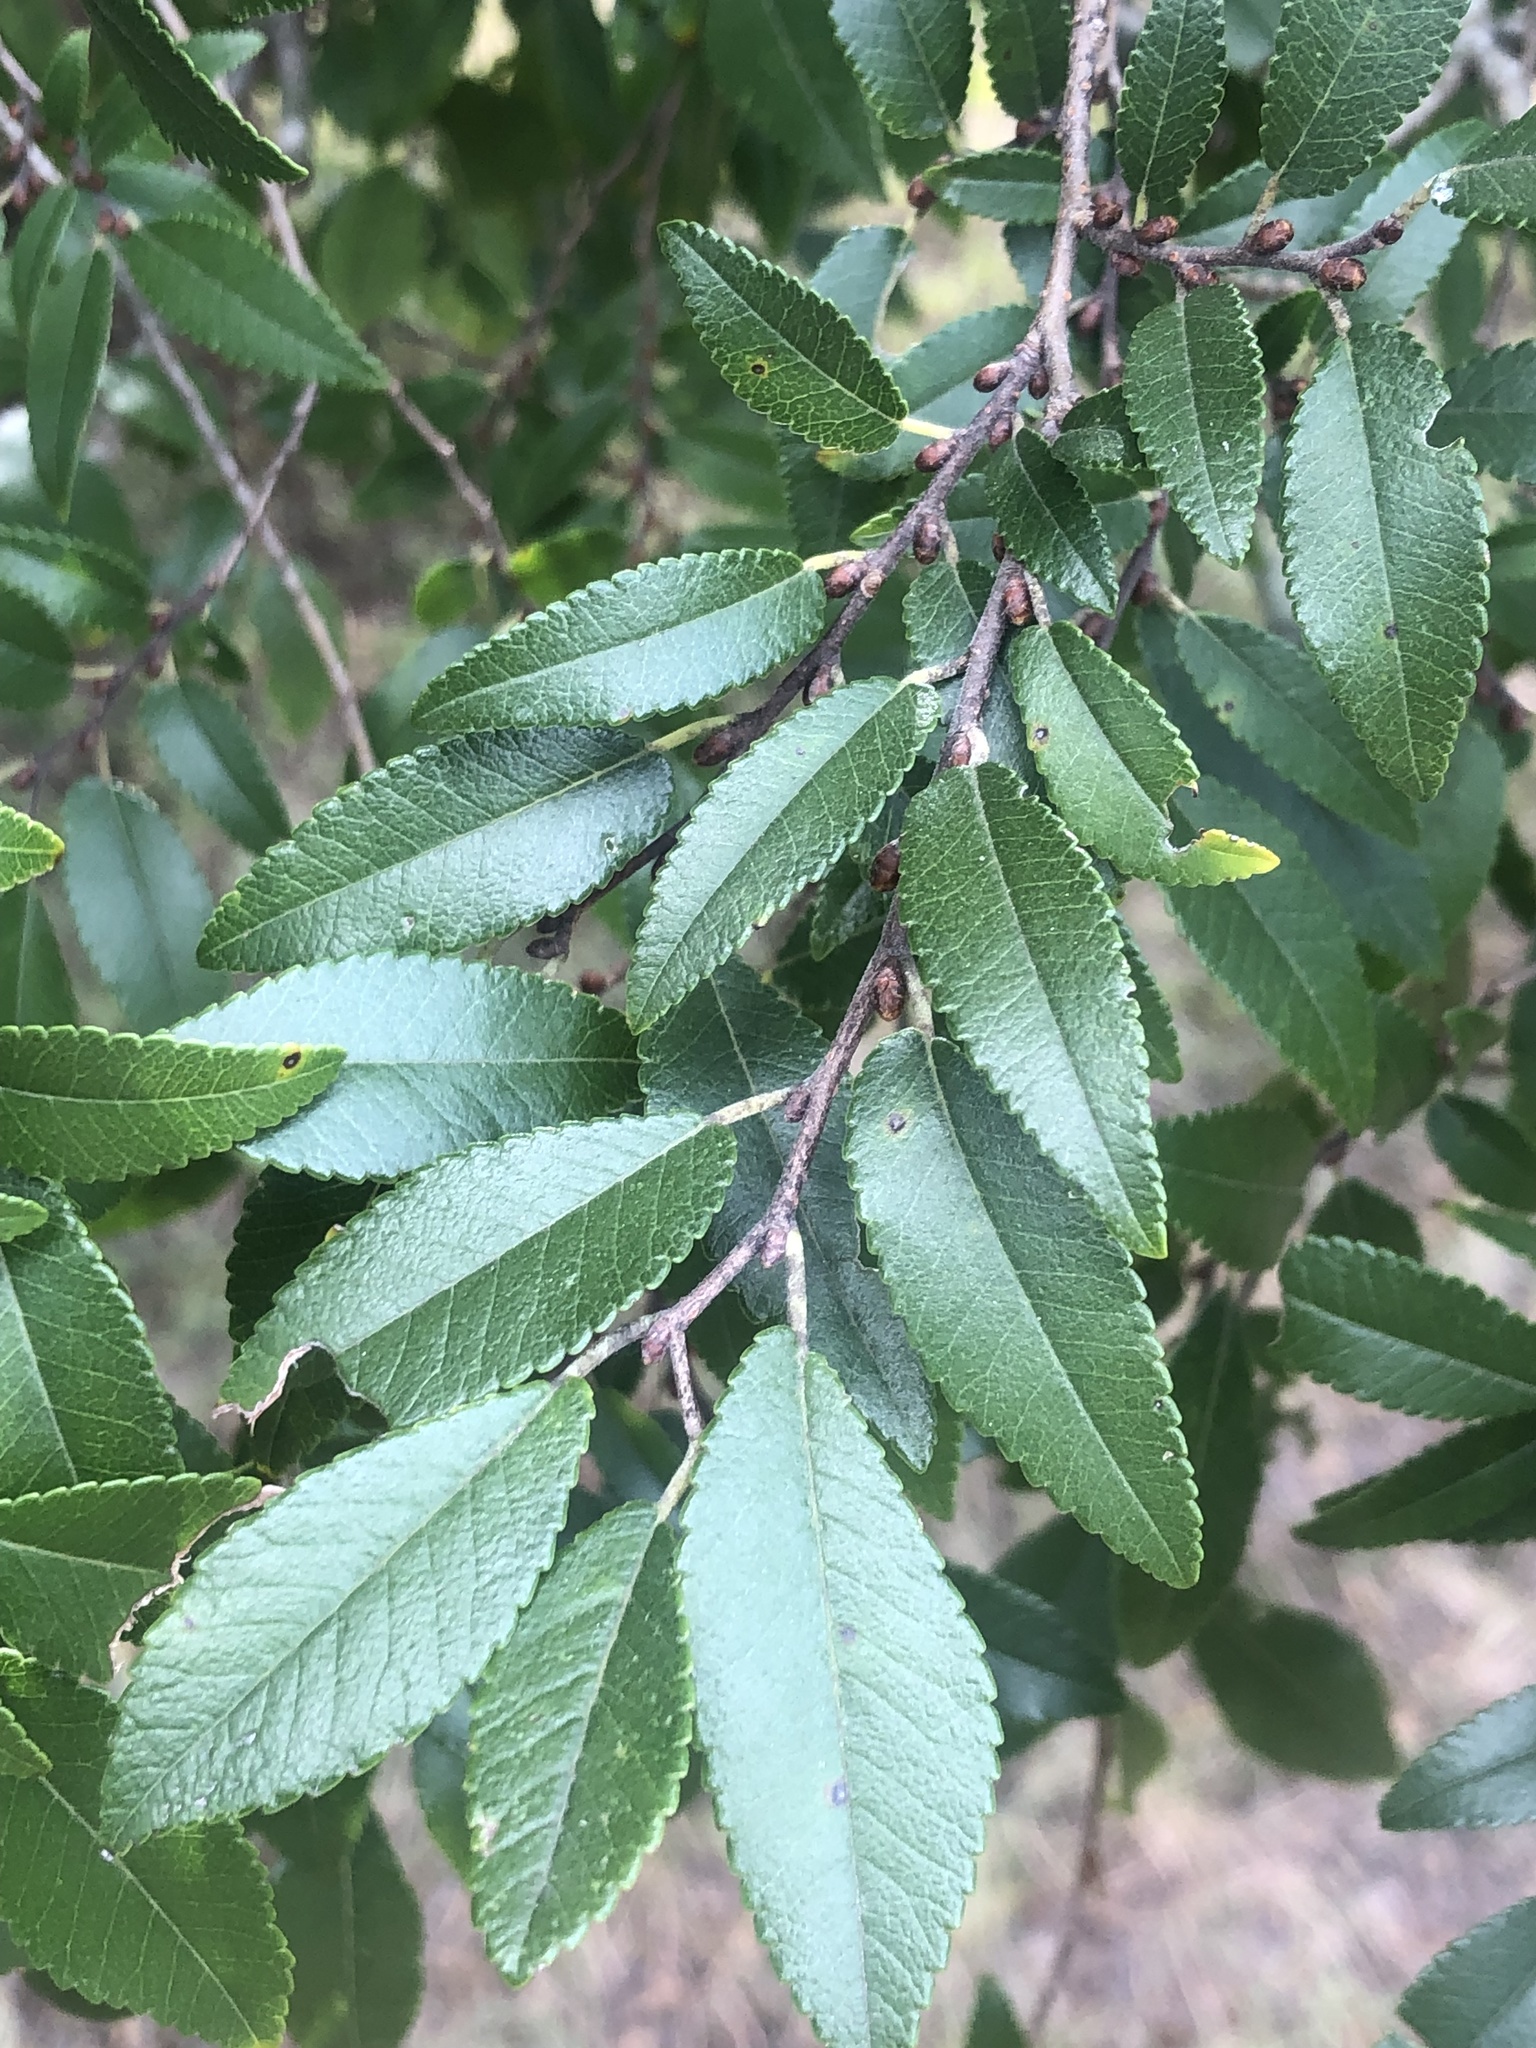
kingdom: Plantae
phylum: Tracheophyta
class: Magnoliopsida
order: Rosales
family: Ulmaceae
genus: Ulmus
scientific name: Ulmus parvifolia
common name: Chinese elm
